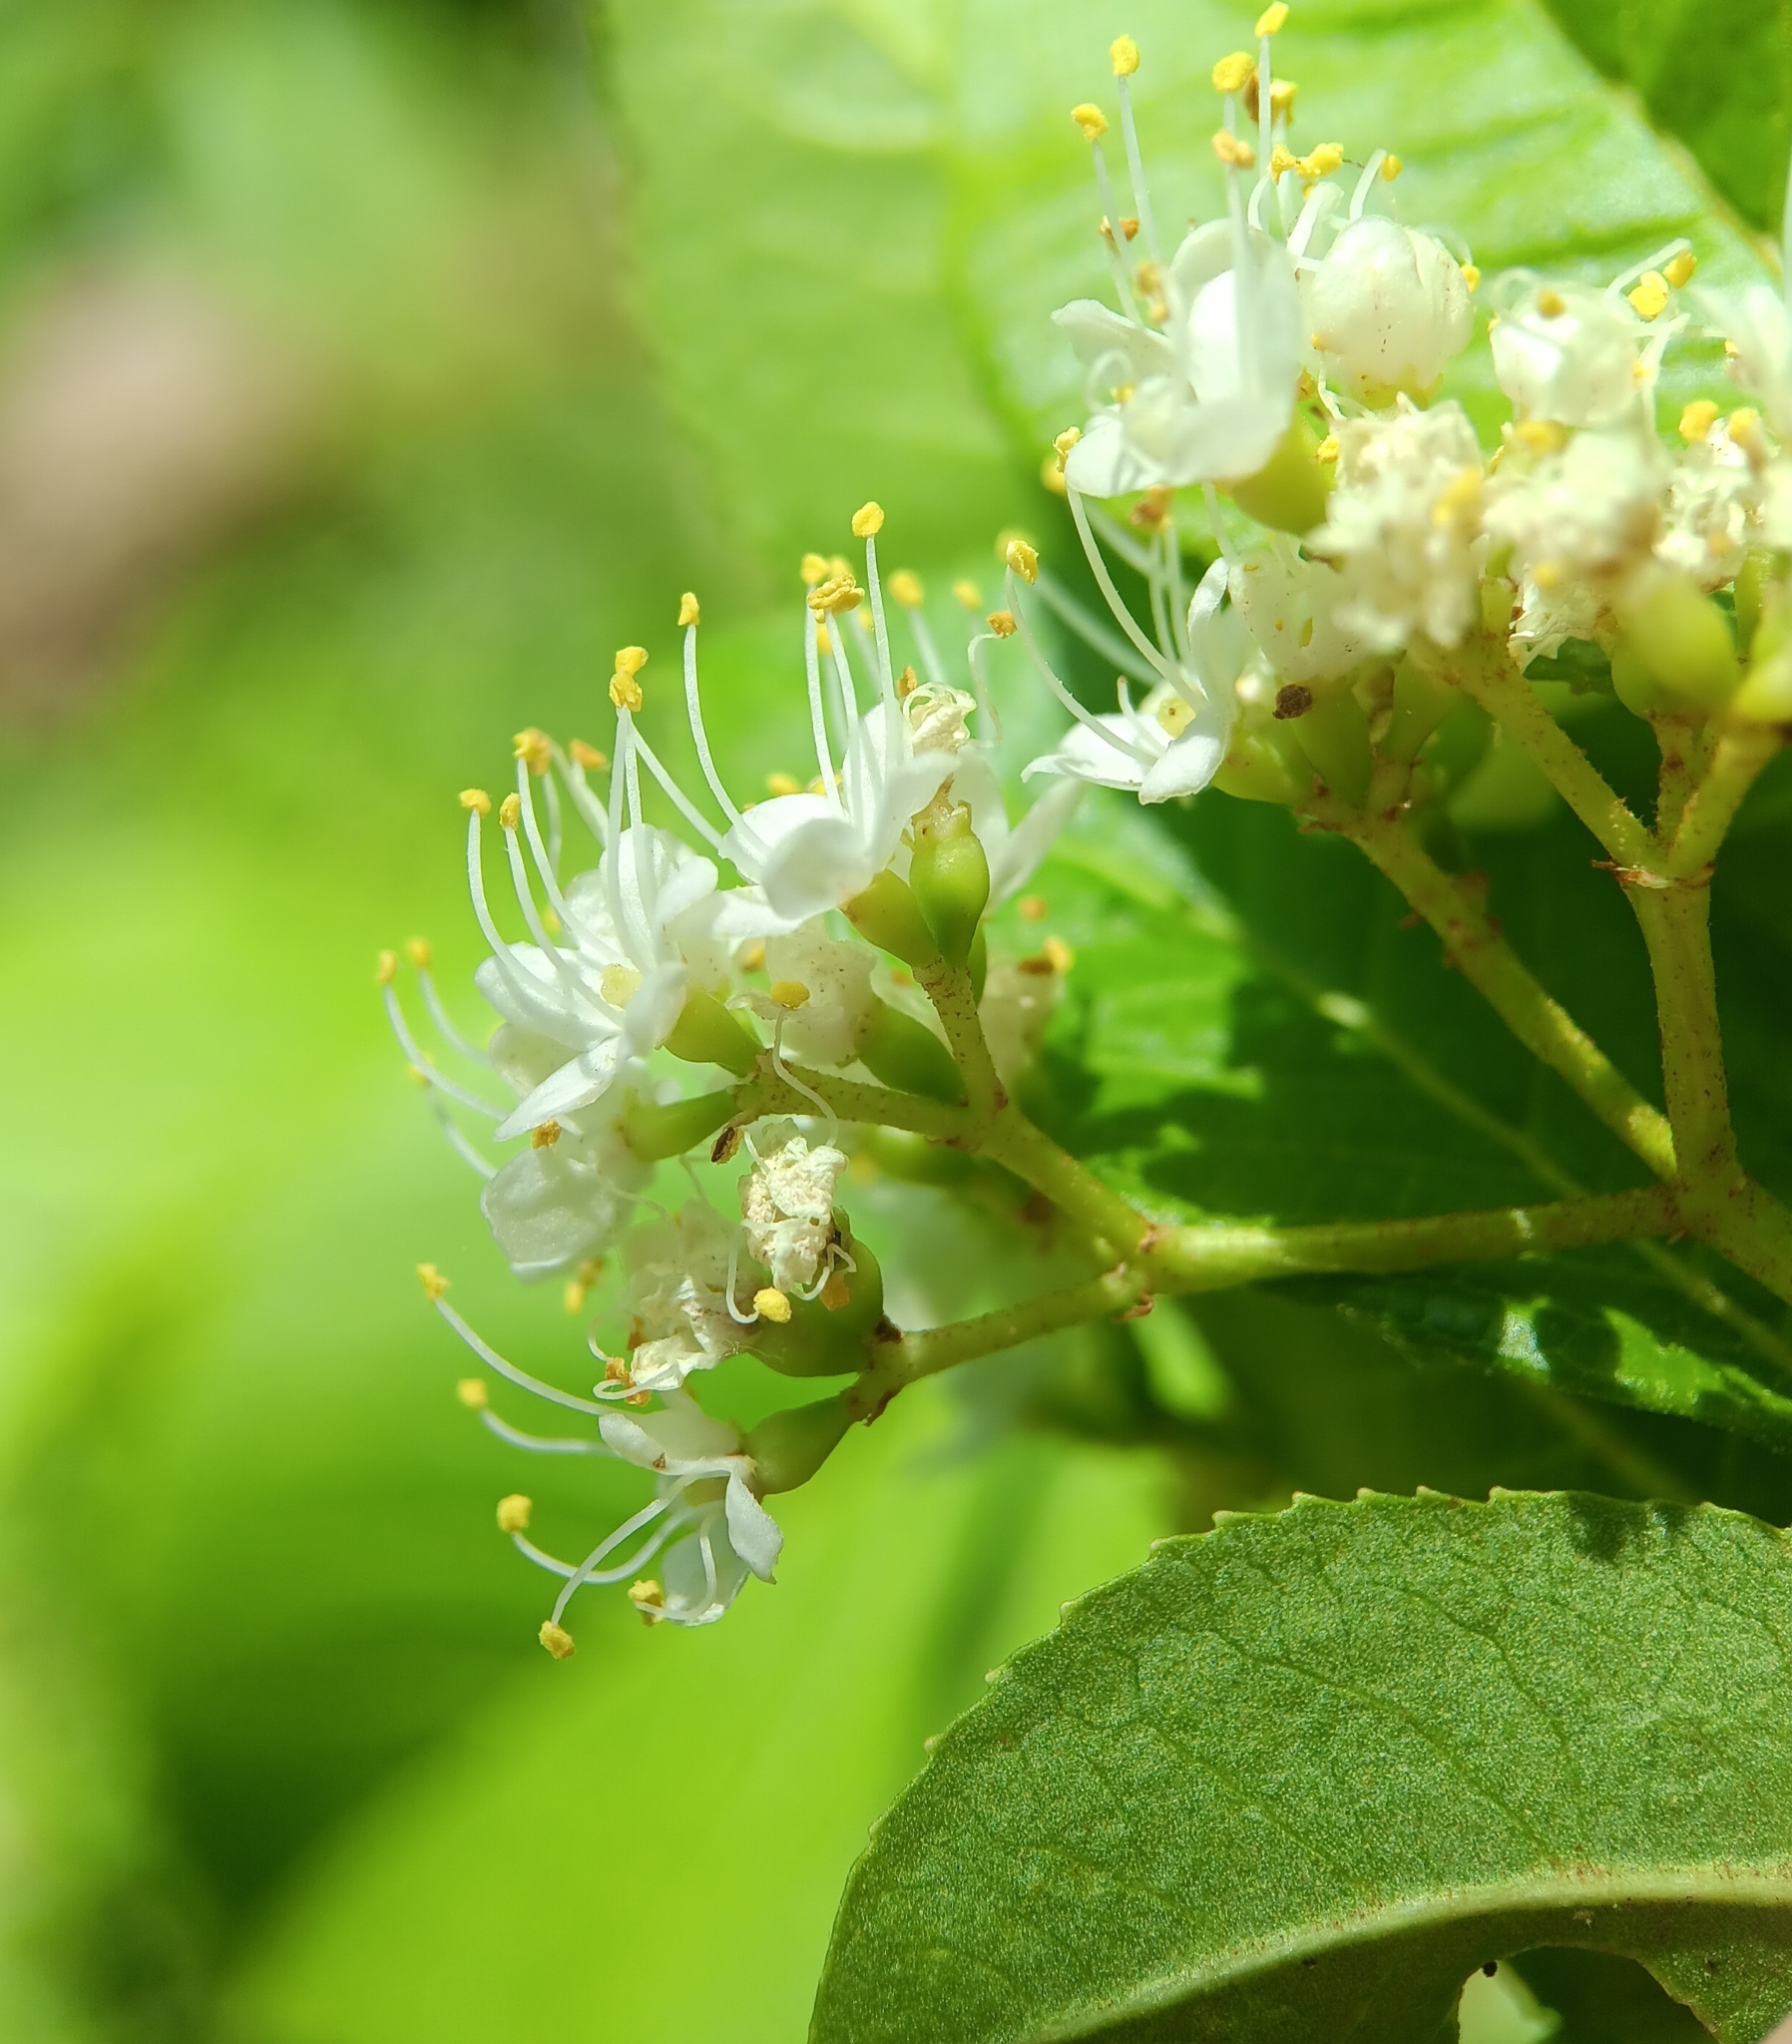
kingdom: Plantae
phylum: Tracheophyta
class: Magnoliopsida
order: Dipsacales
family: Viburnaceae
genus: Viburnum
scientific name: Viburnum lentago
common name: Black haw
